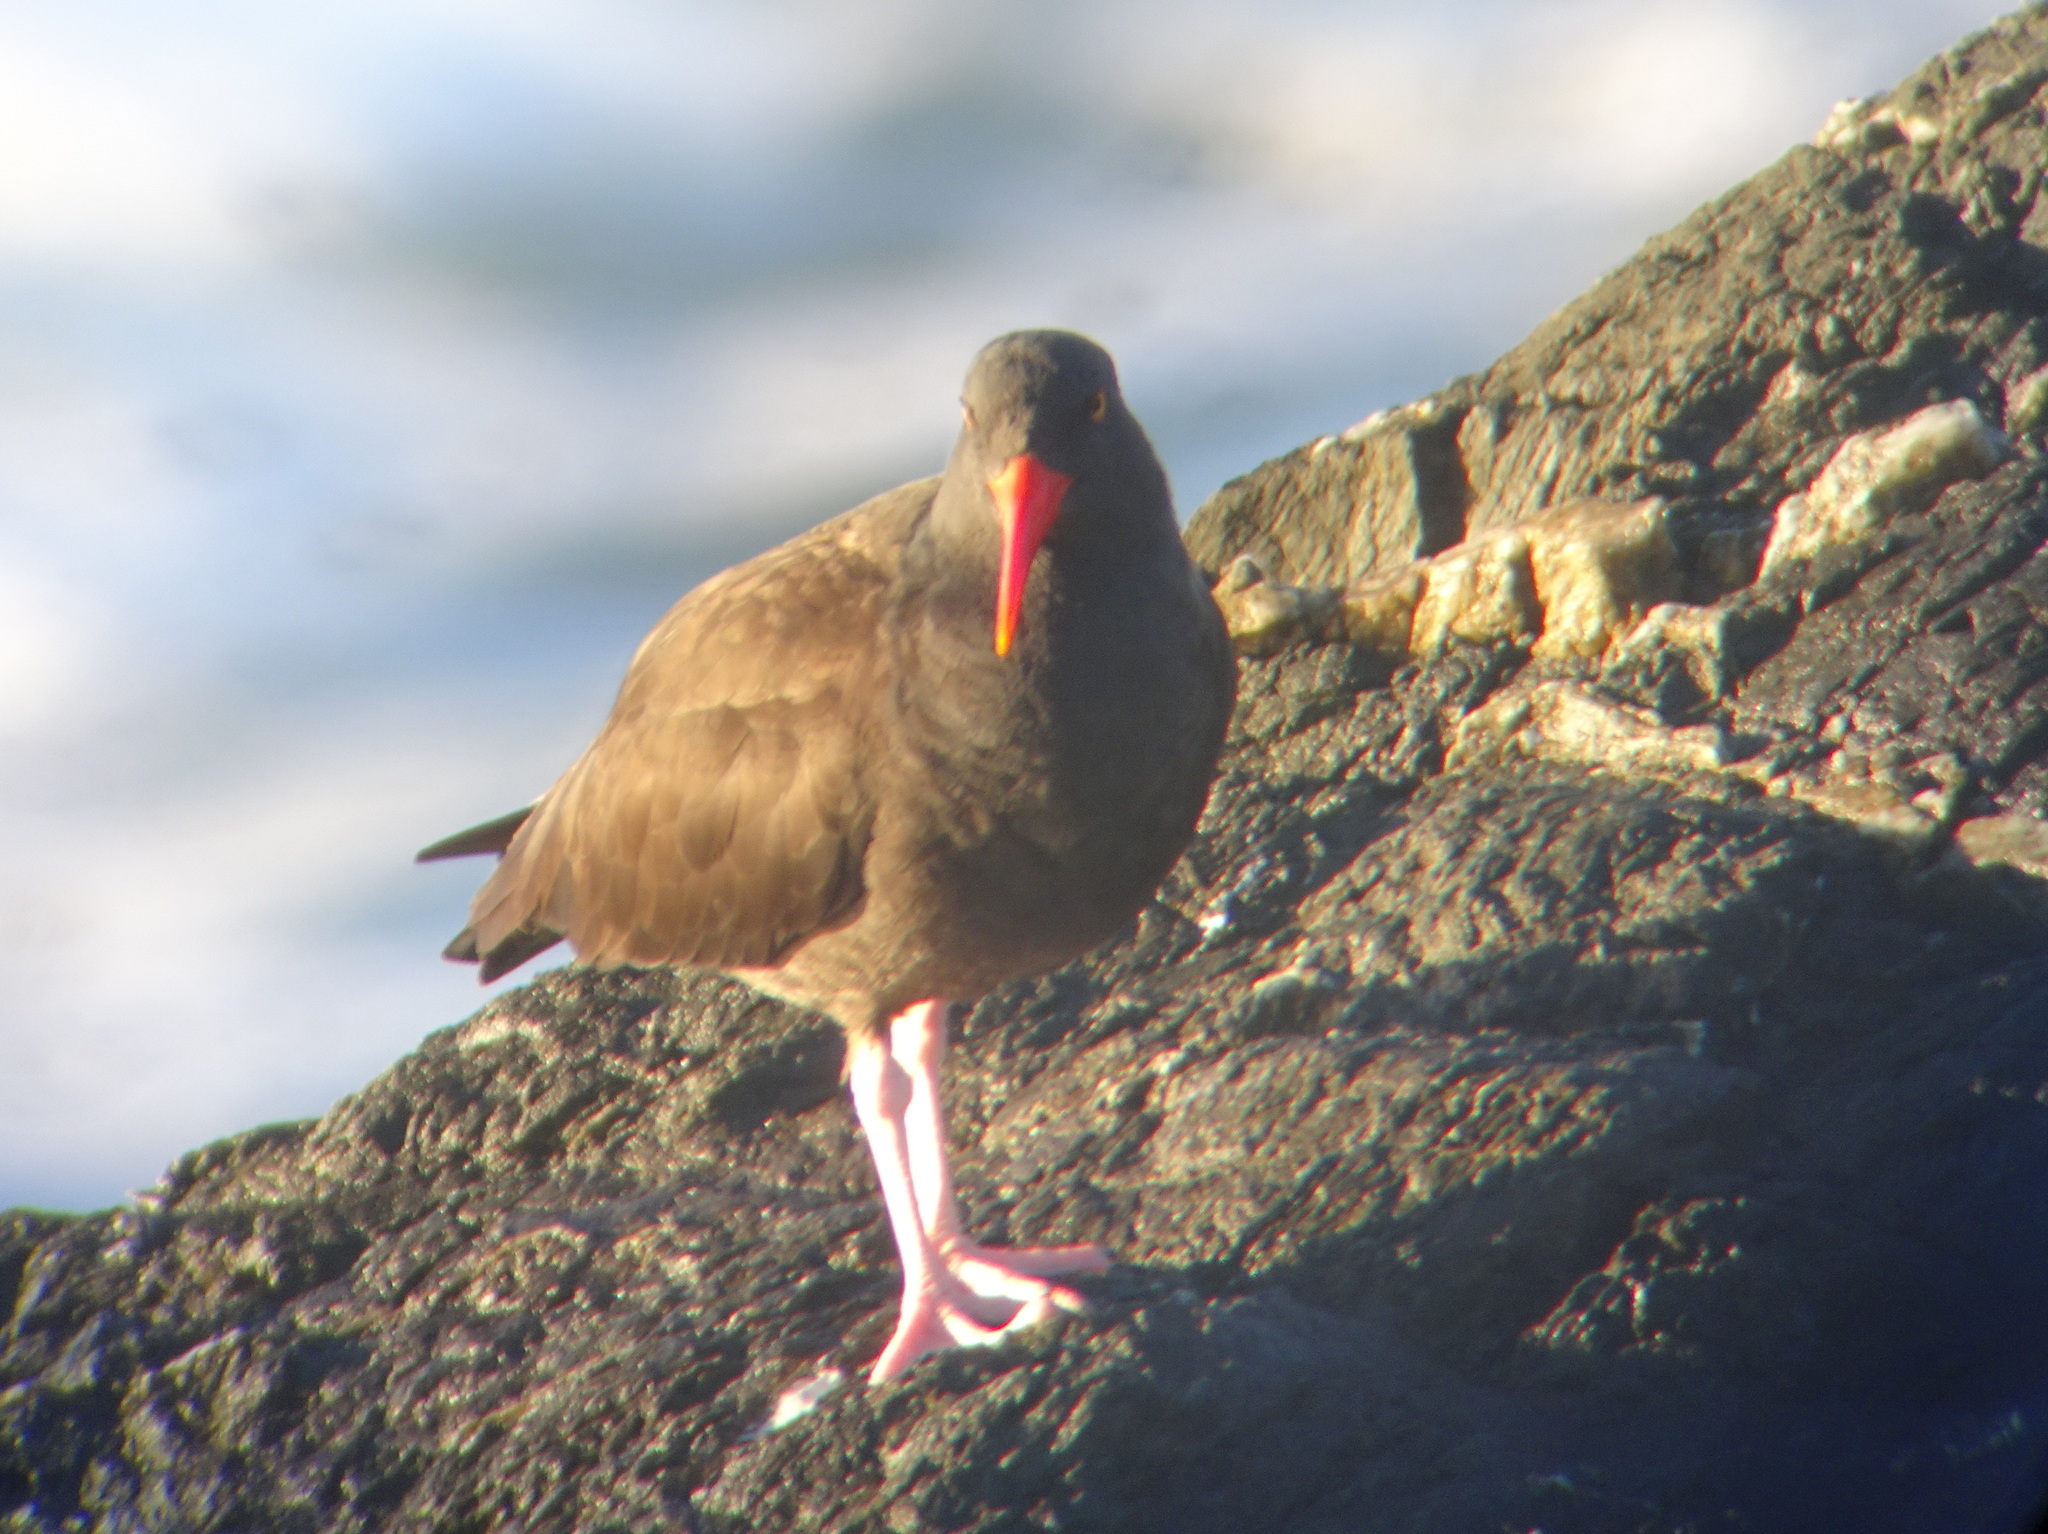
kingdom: Animalia
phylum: Chordata
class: Aves
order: Charadriiformes
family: Haematopodidae
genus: Haematopus
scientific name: Haematopus bachmani
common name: Black oystercatcher
